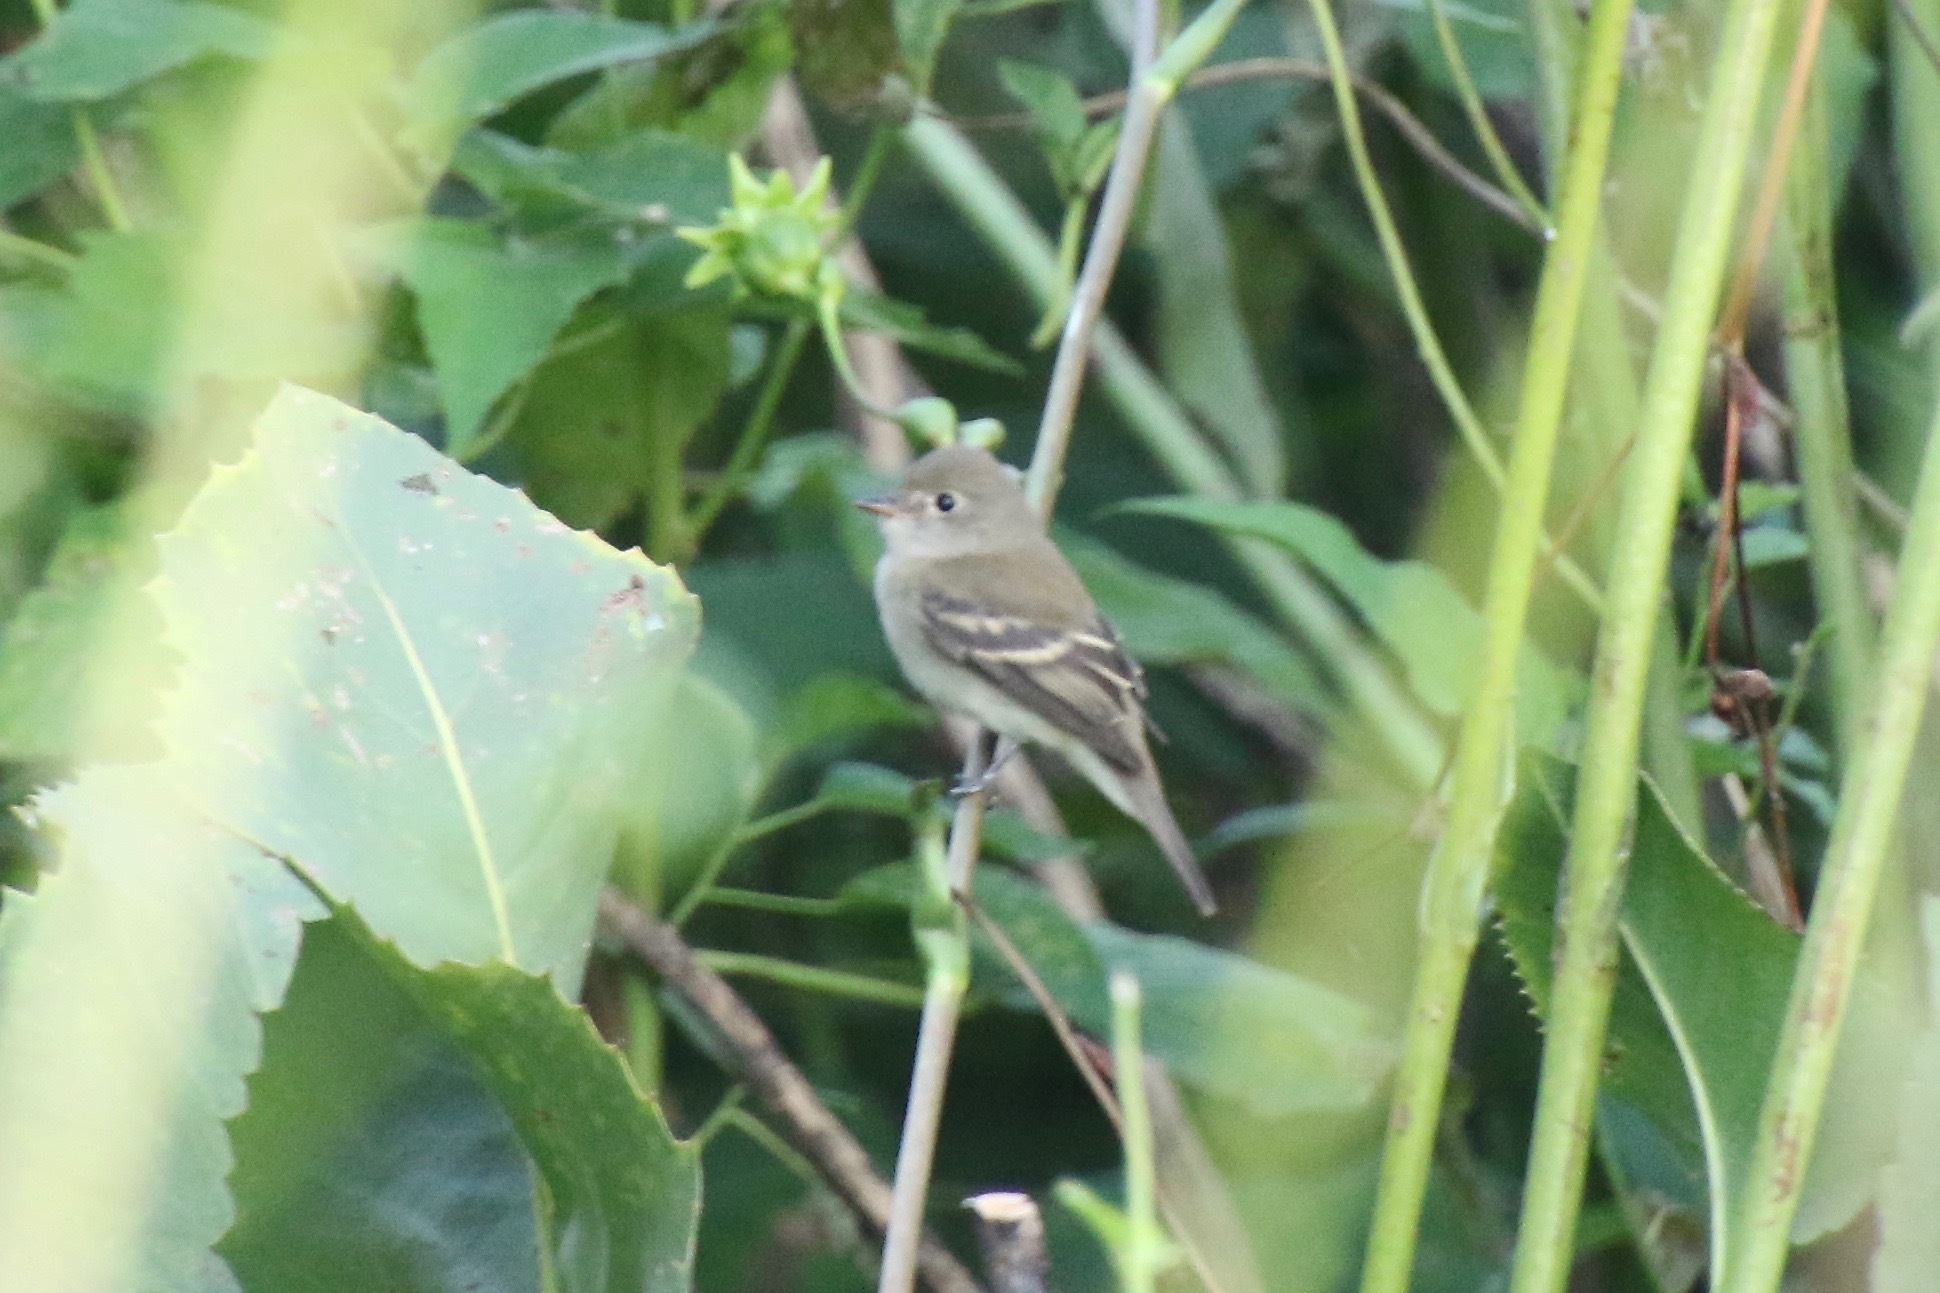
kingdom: Animalia
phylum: Chordata
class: Aves
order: Passeriformes
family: Tyrannidae
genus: Empidonax
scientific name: Empidonax minimus
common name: Least flycatcher
